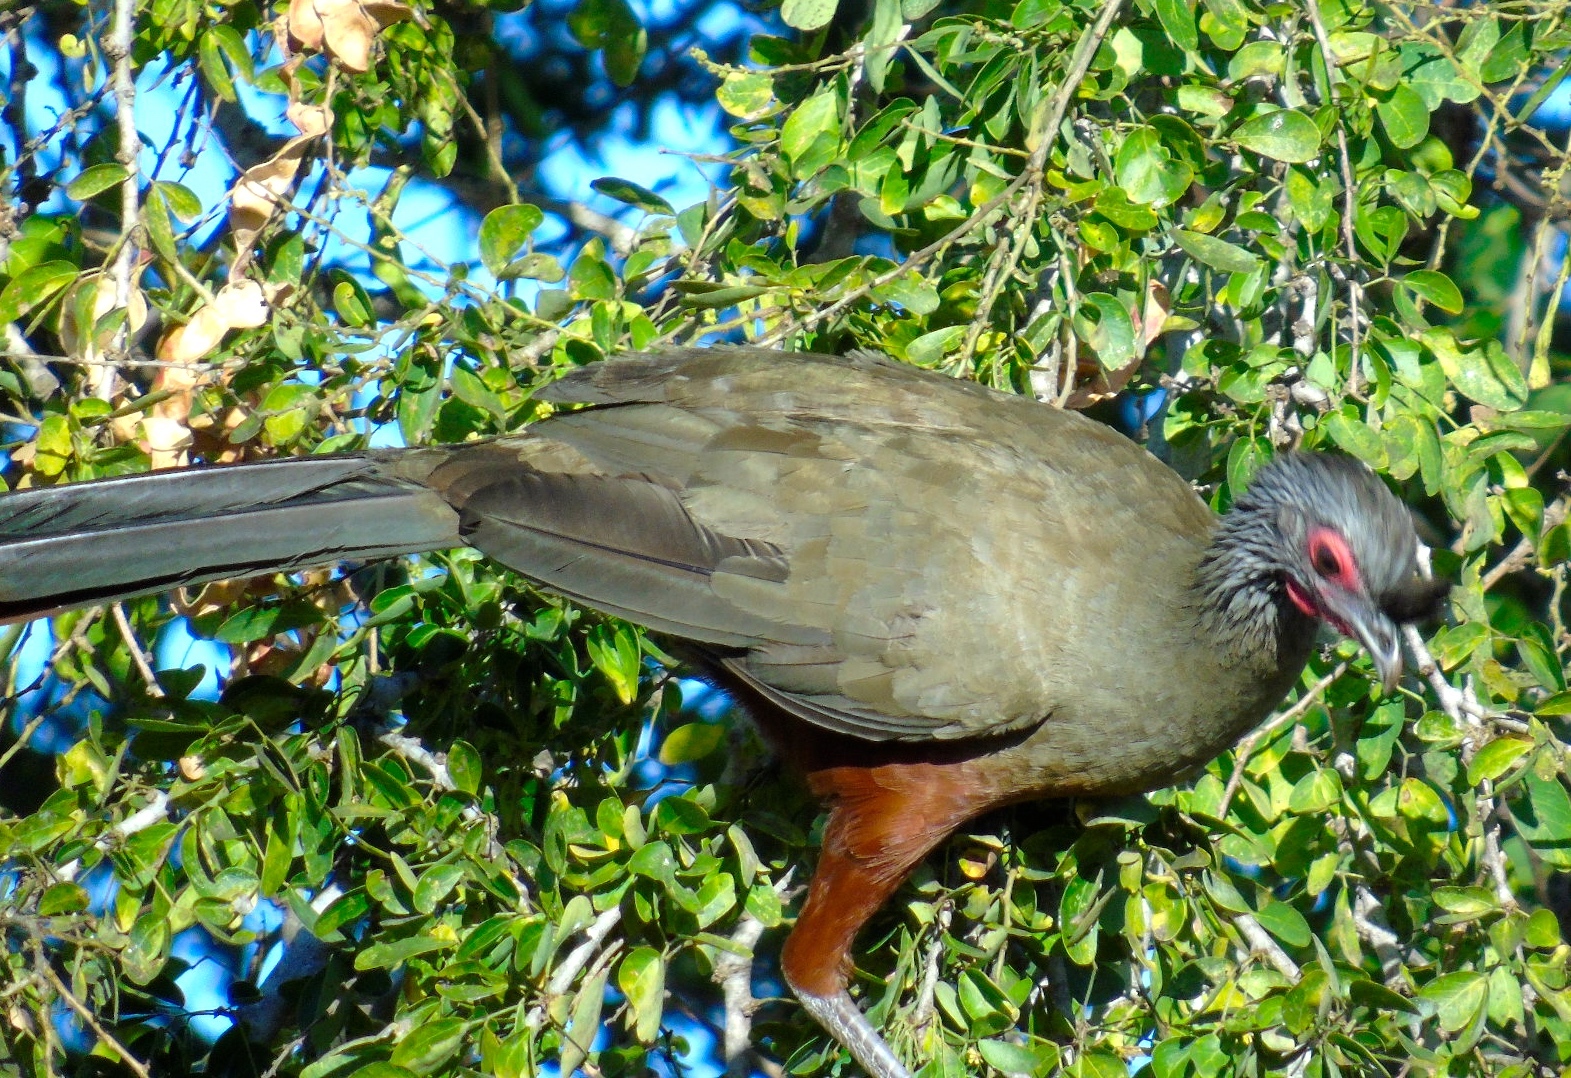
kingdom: Animalia
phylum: Chordata
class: Aves
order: Galliformes
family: Cracidae
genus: Ortalis
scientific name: Ortalis wagleri
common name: Rufous-bellied chachalaca
